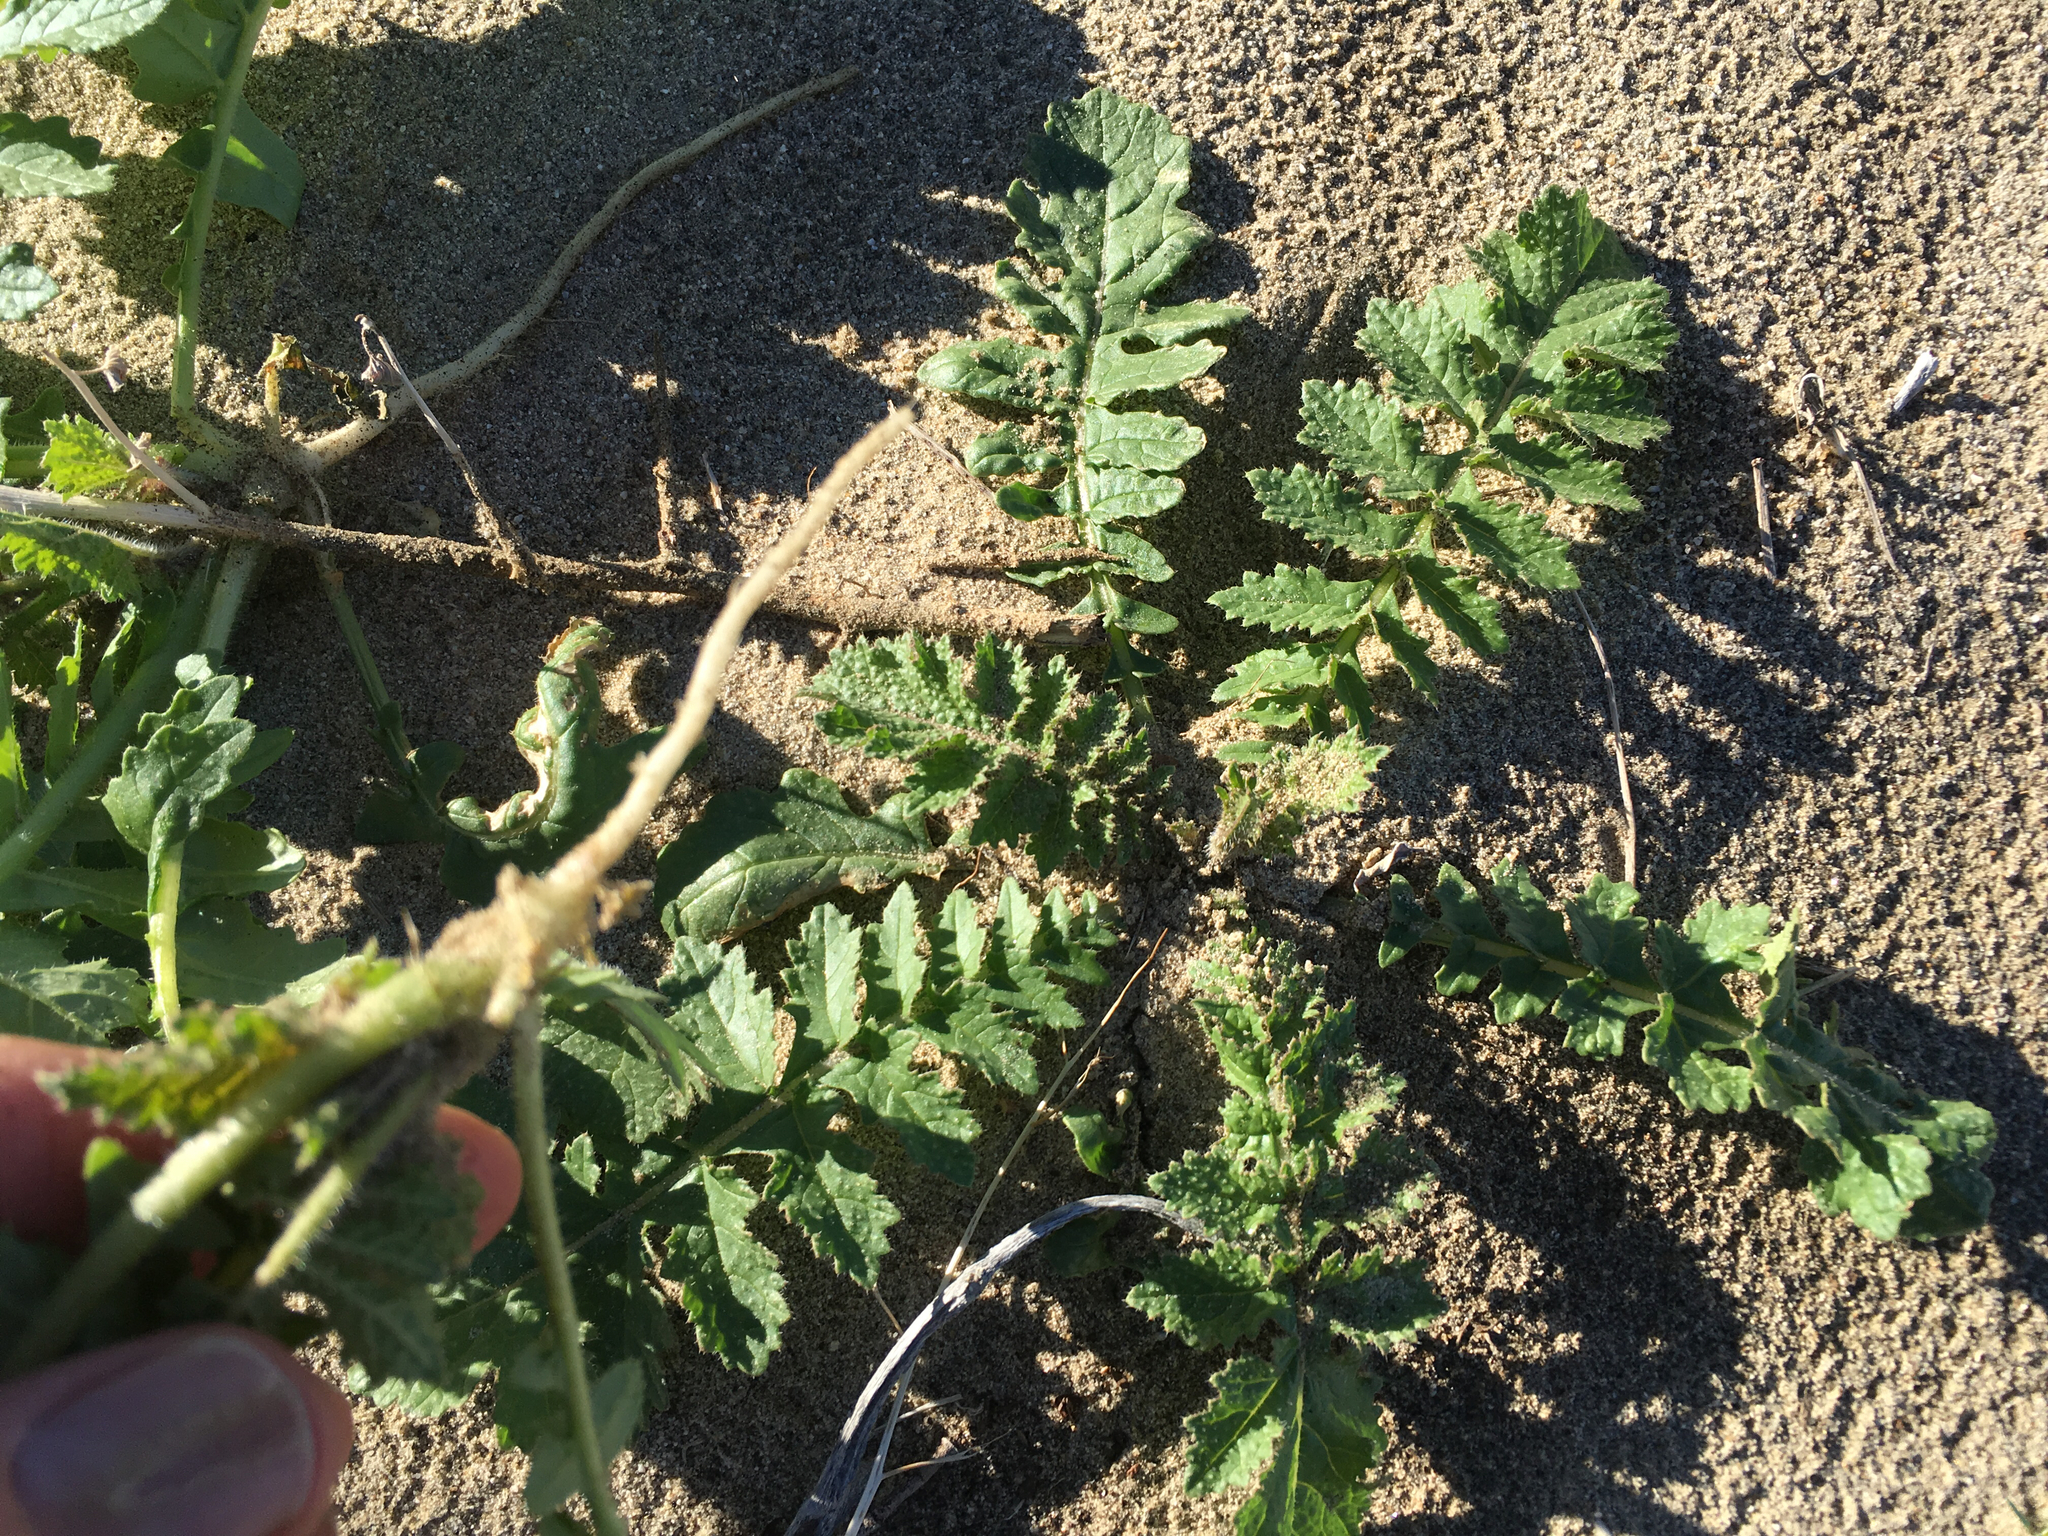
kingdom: Plantae
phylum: Tracheophyta
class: Magnoliopsida
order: Brassicales
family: Brassicaceae
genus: Brassica
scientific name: Brassica tournefortii
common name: Pale cabbage
